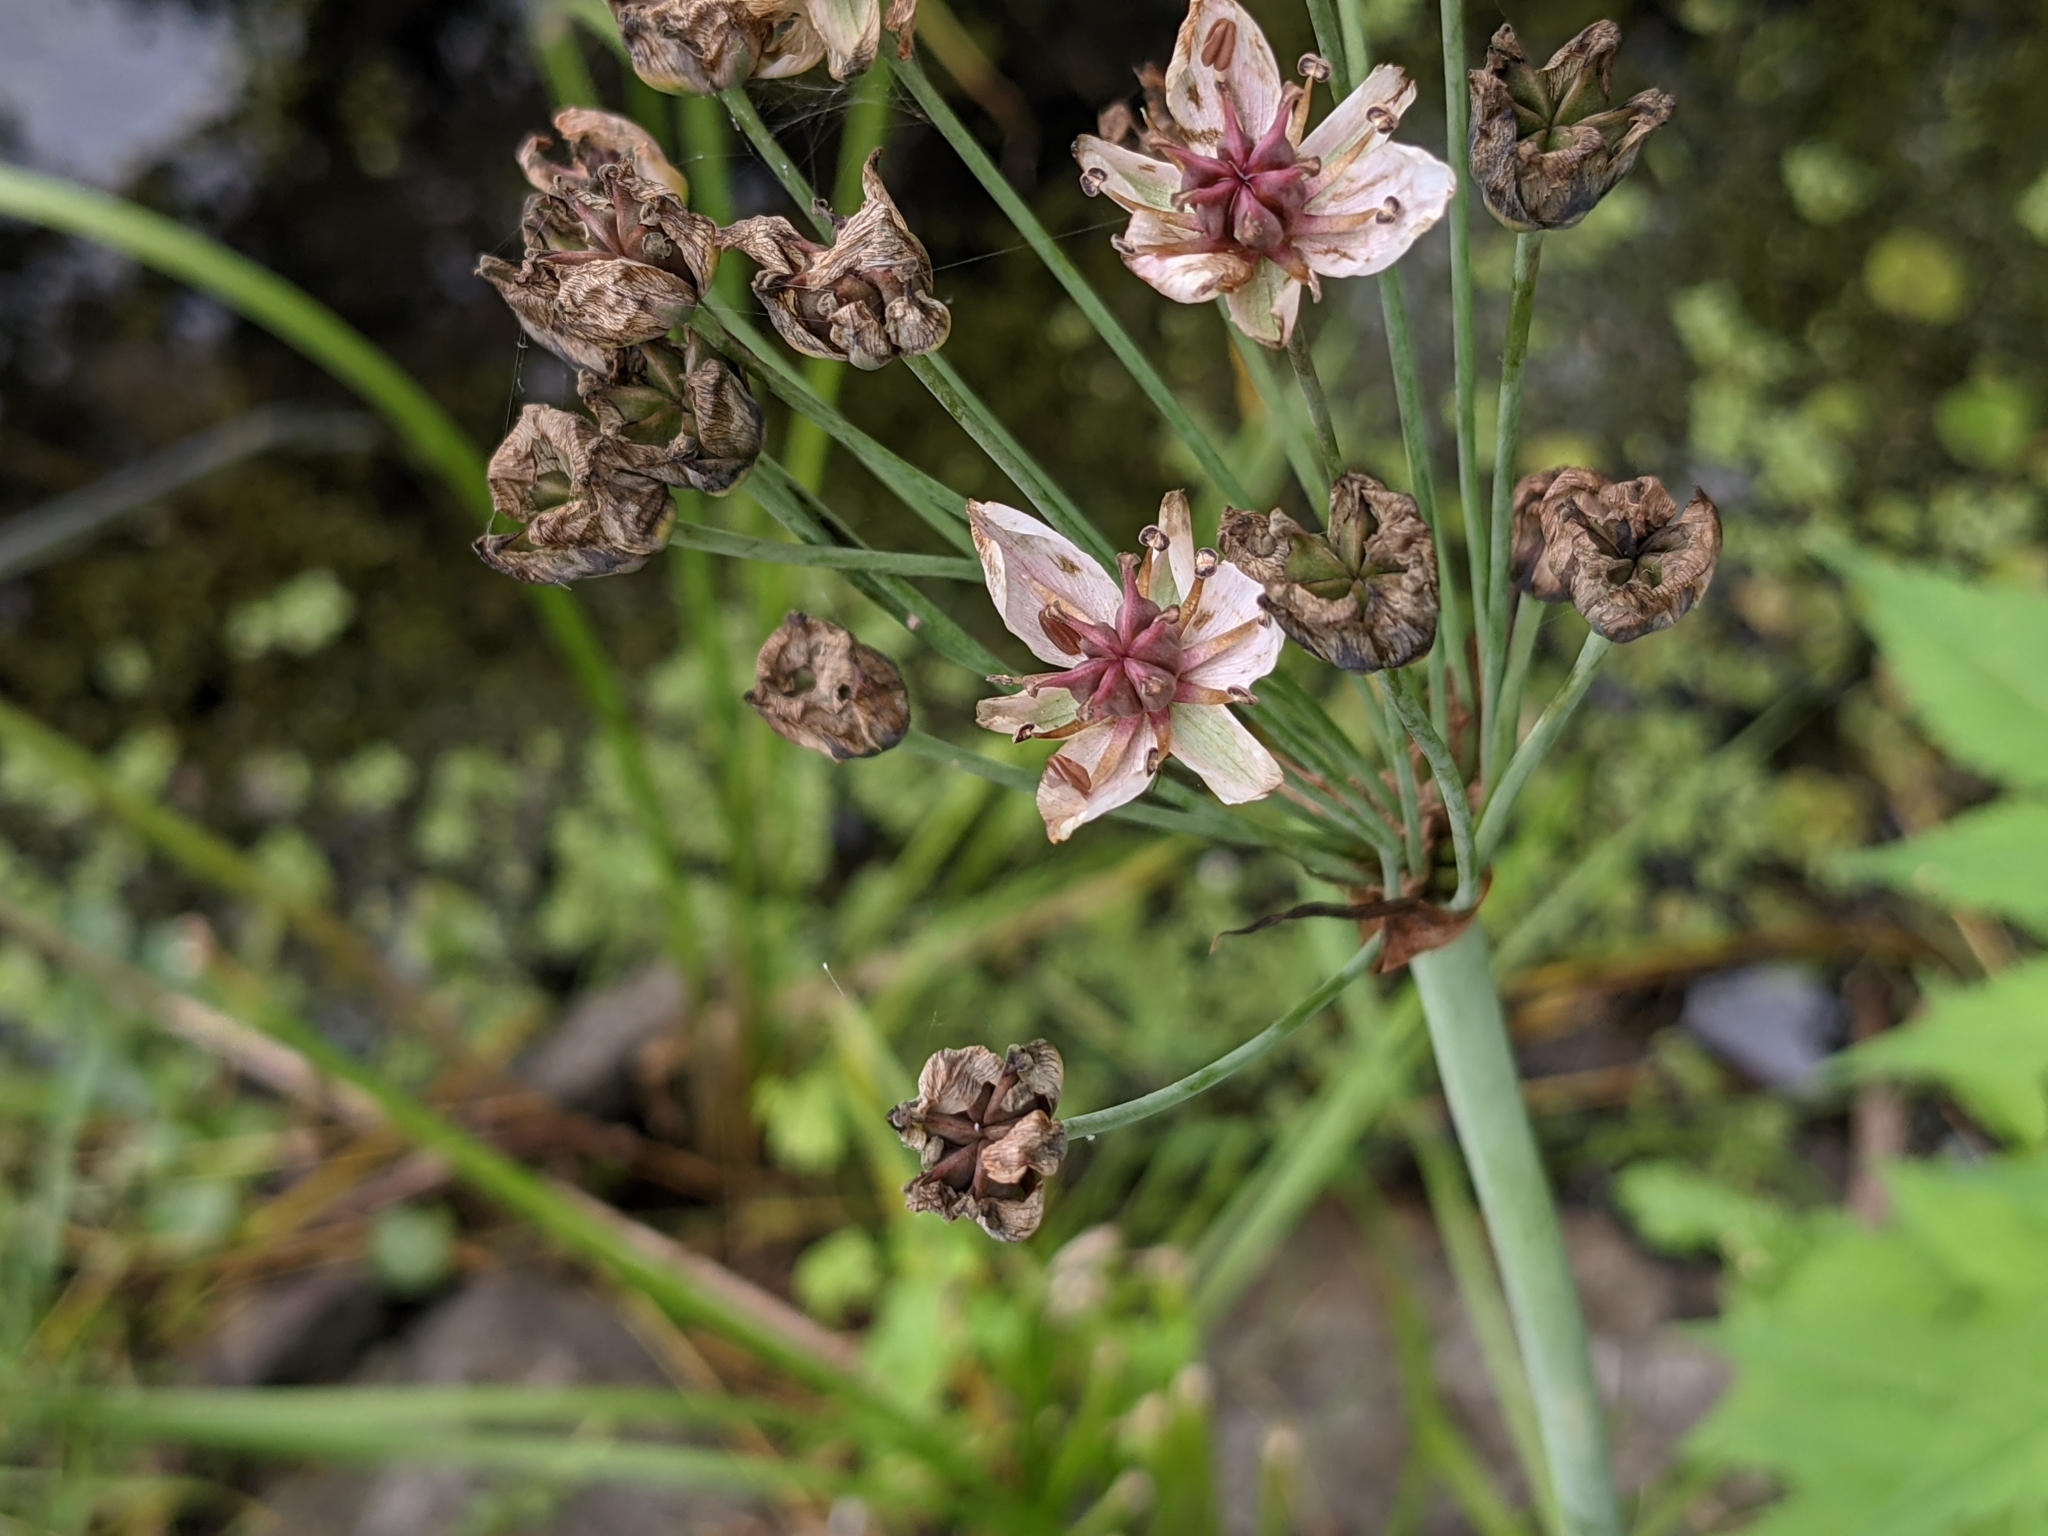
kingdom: Plantae
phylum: Tracheophyta
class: Liliopsida
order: Alismatales
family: Butomaceae
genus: Butomus
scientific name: Butomus umbellatus
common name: Flowering-rush
